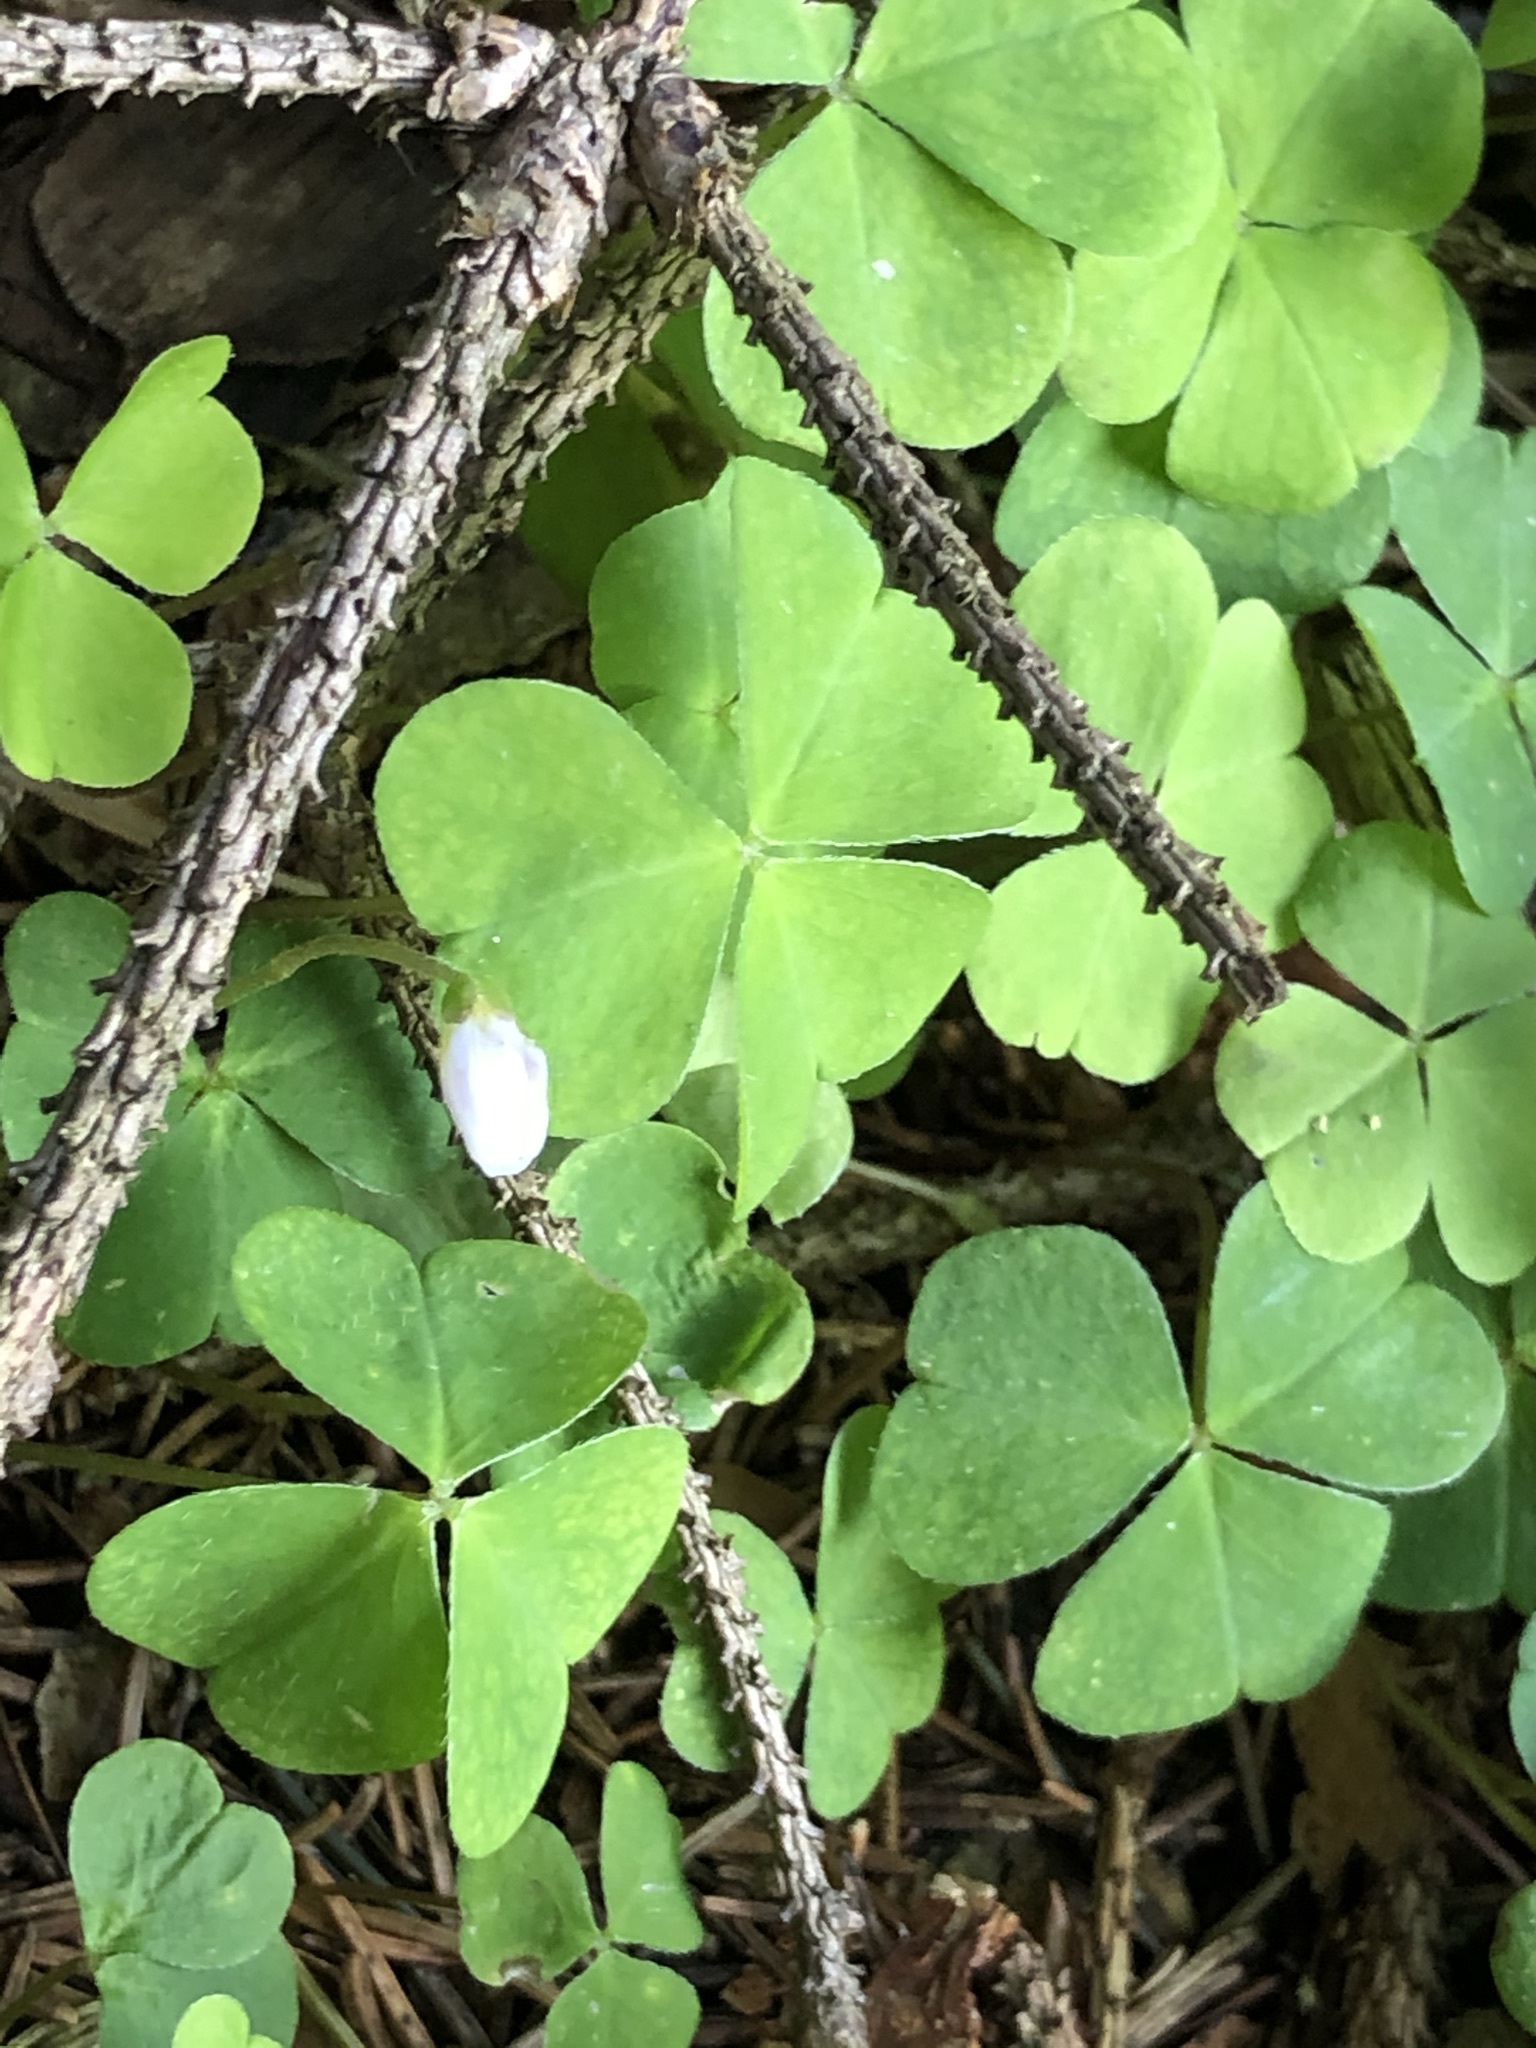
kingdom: Plantae
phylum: Tracheophyta
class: Magnoliopsida
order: Oxalidales
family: Oxalidaceae
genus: Oxalis
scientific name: Oxalis acetosella
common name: Wood-sorrel
